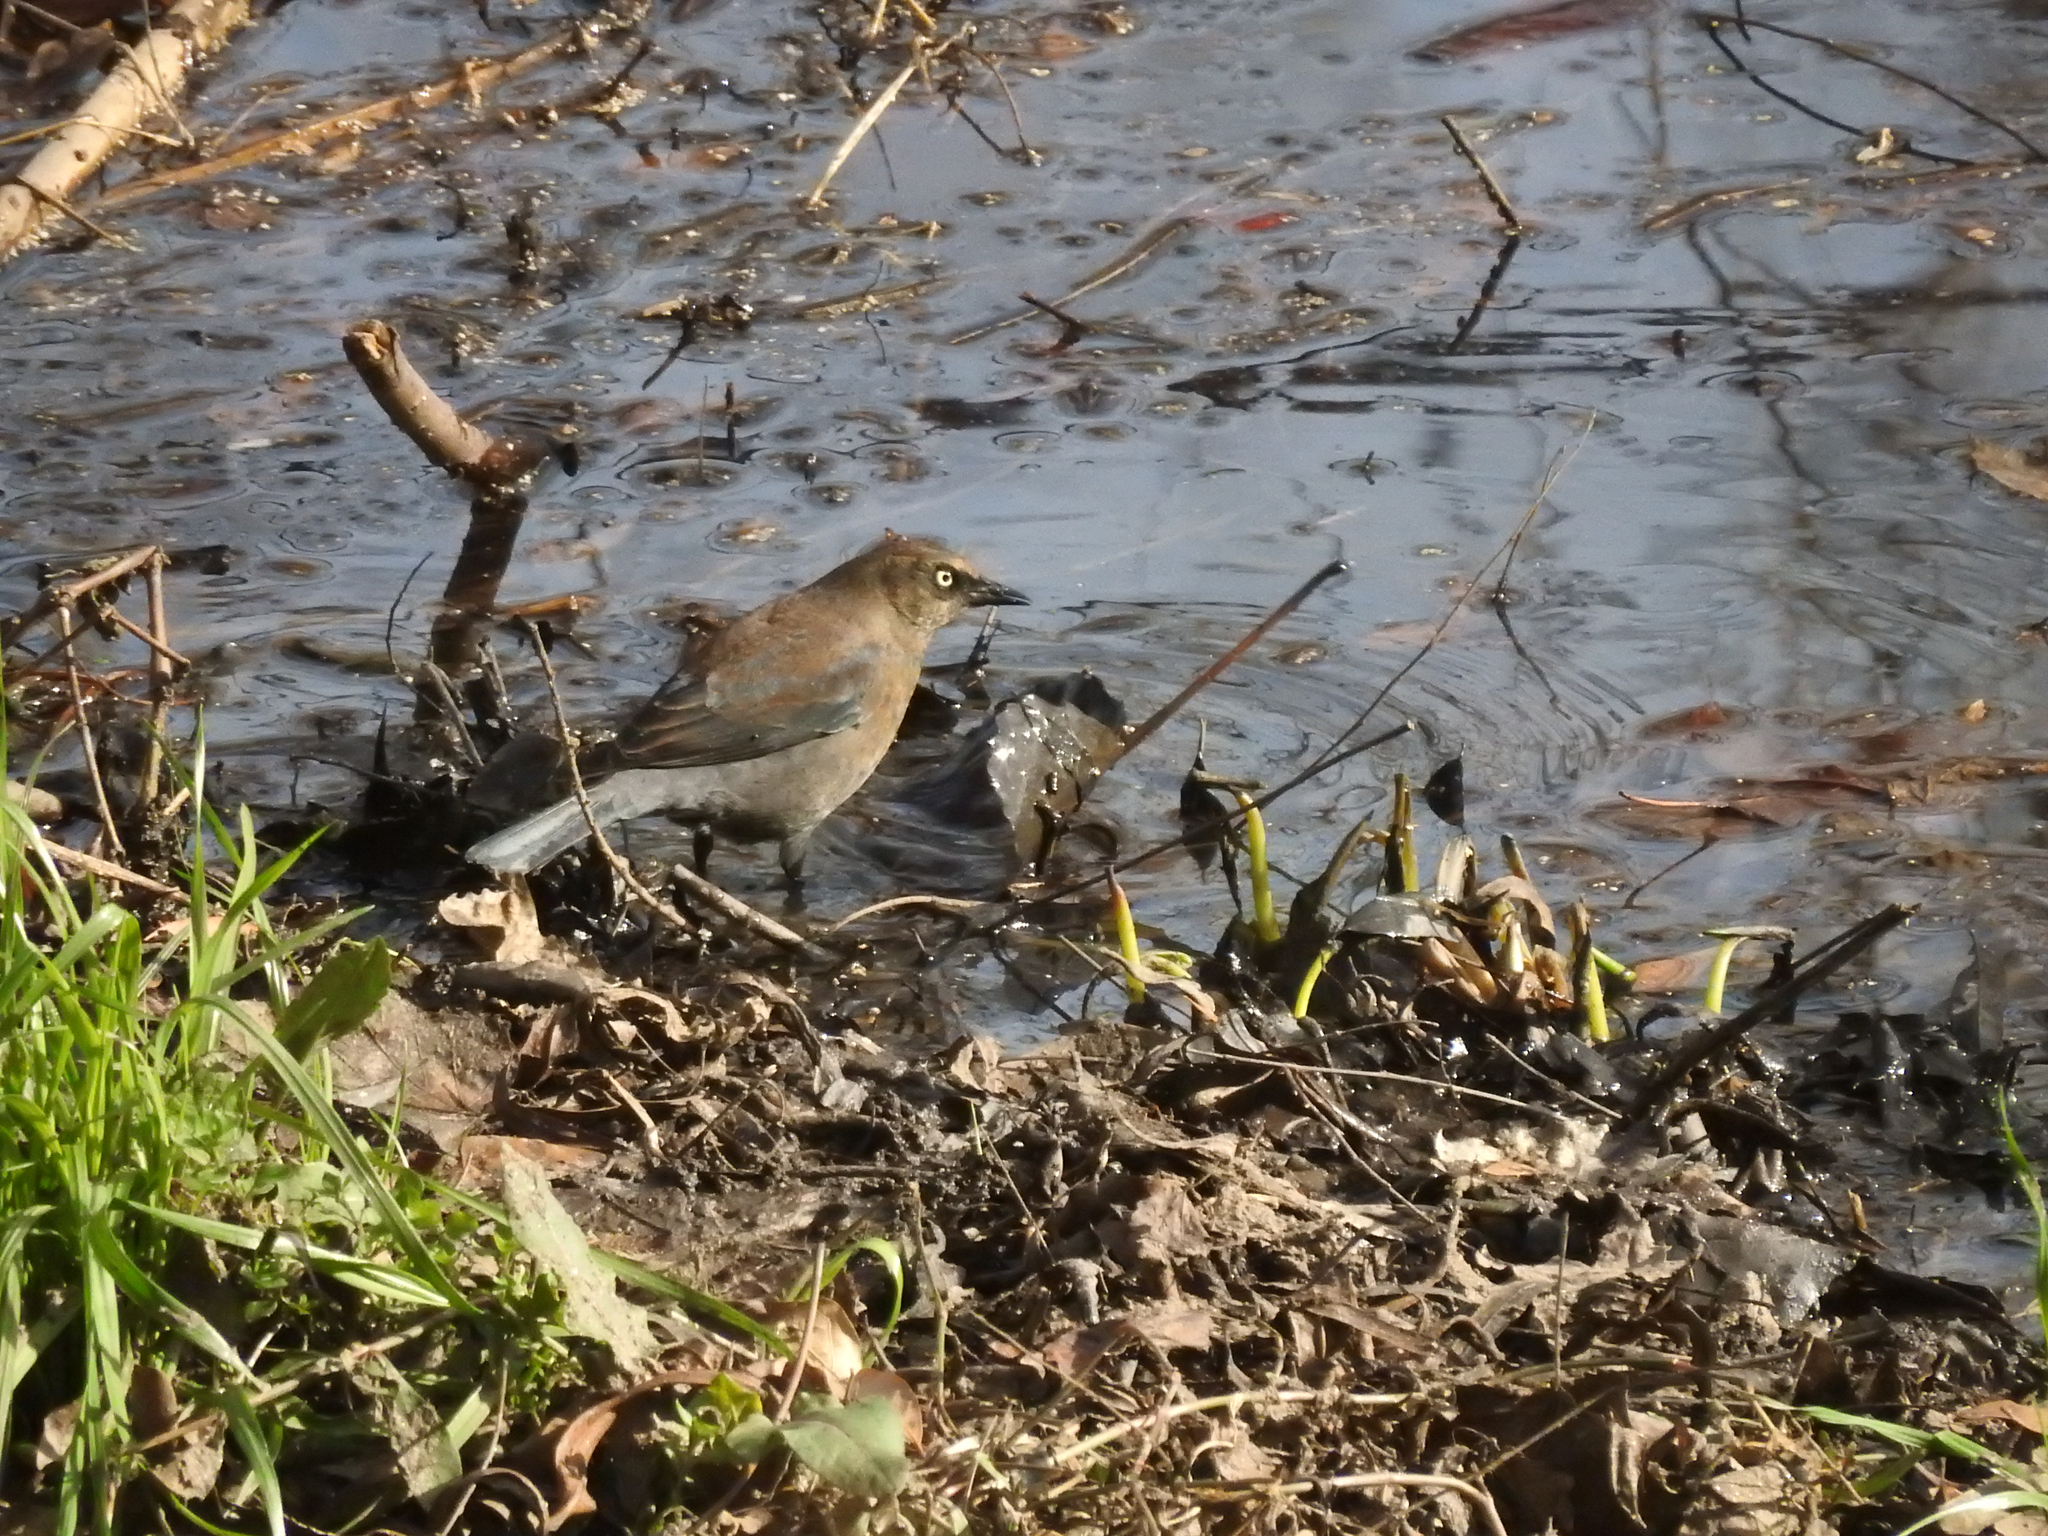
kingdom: Animalia
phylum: Chordata
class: Aves
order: Passeriformes
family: Icteridae
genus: Euphagus
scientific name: Euphagus carolinus
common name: Rusty blackbird
